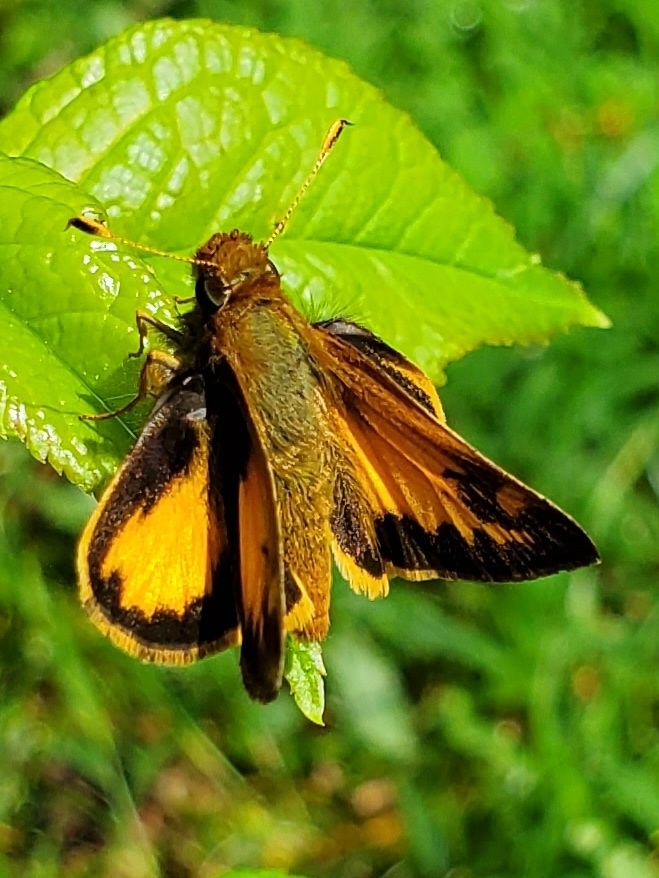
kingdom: Animalia
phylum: Arthropoda
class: Insecta
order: Lepidoptera
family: Hesperiidae
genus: Lon
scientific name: Lon zabulon
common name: Zabulon skipper
